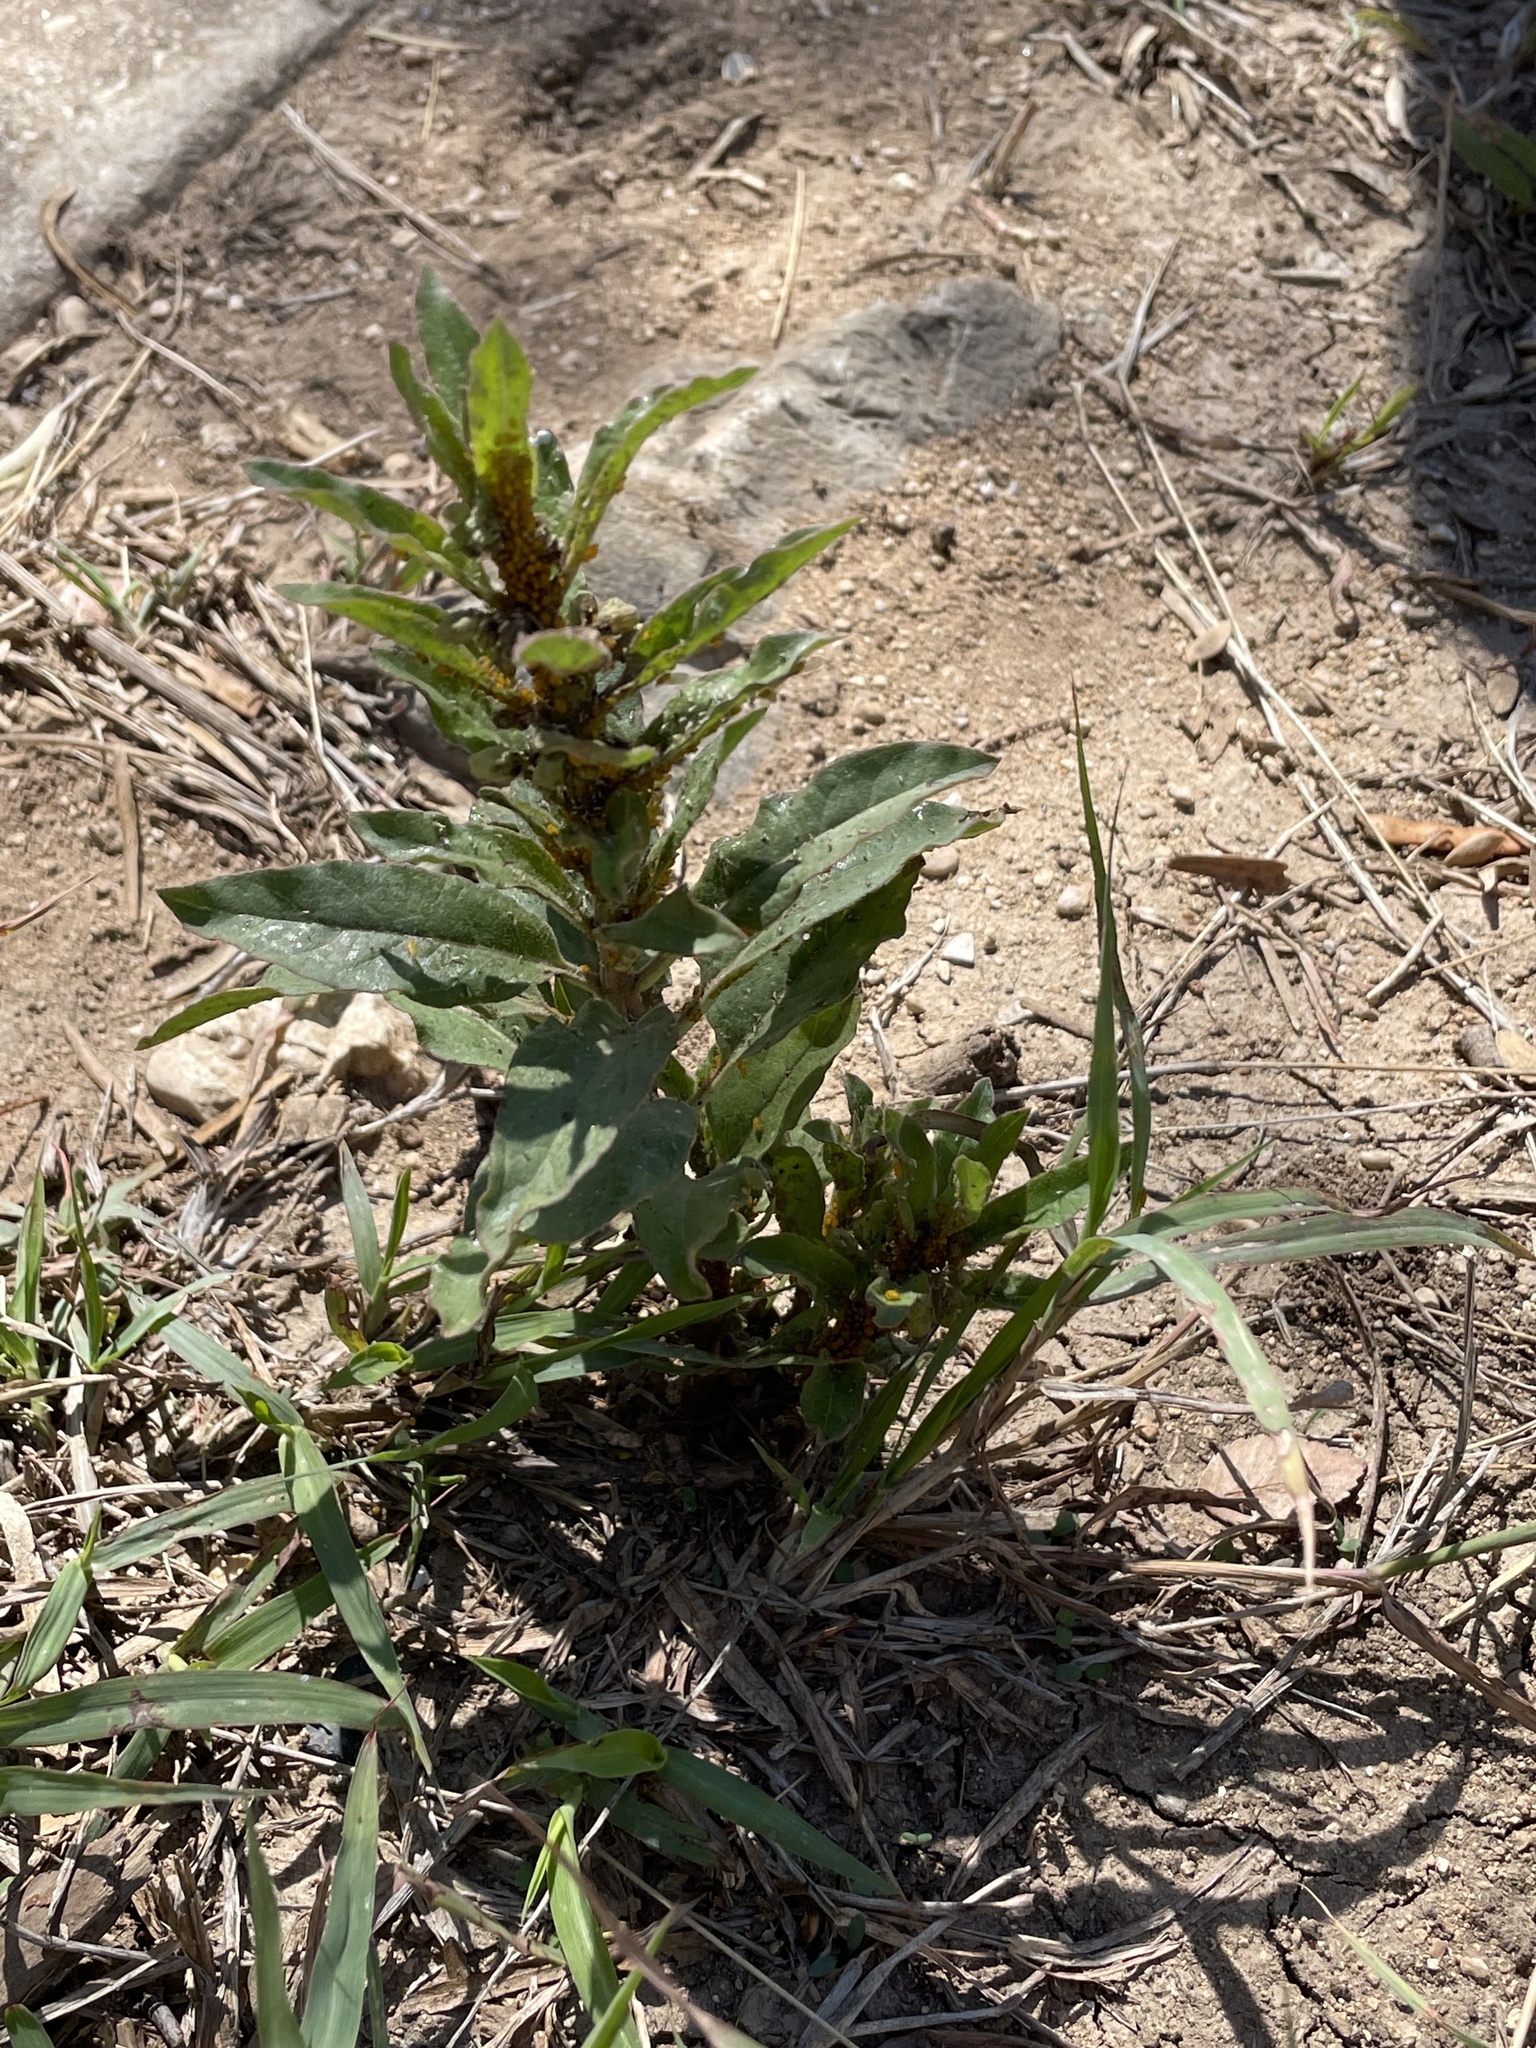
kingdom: Plantae
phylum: Tracheophyta
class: Magnoliopsida
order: Gentianales
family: Apocynaceae
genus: Asclepias
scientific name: Asclepias oenotheroides
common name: Zizotes milkweed
